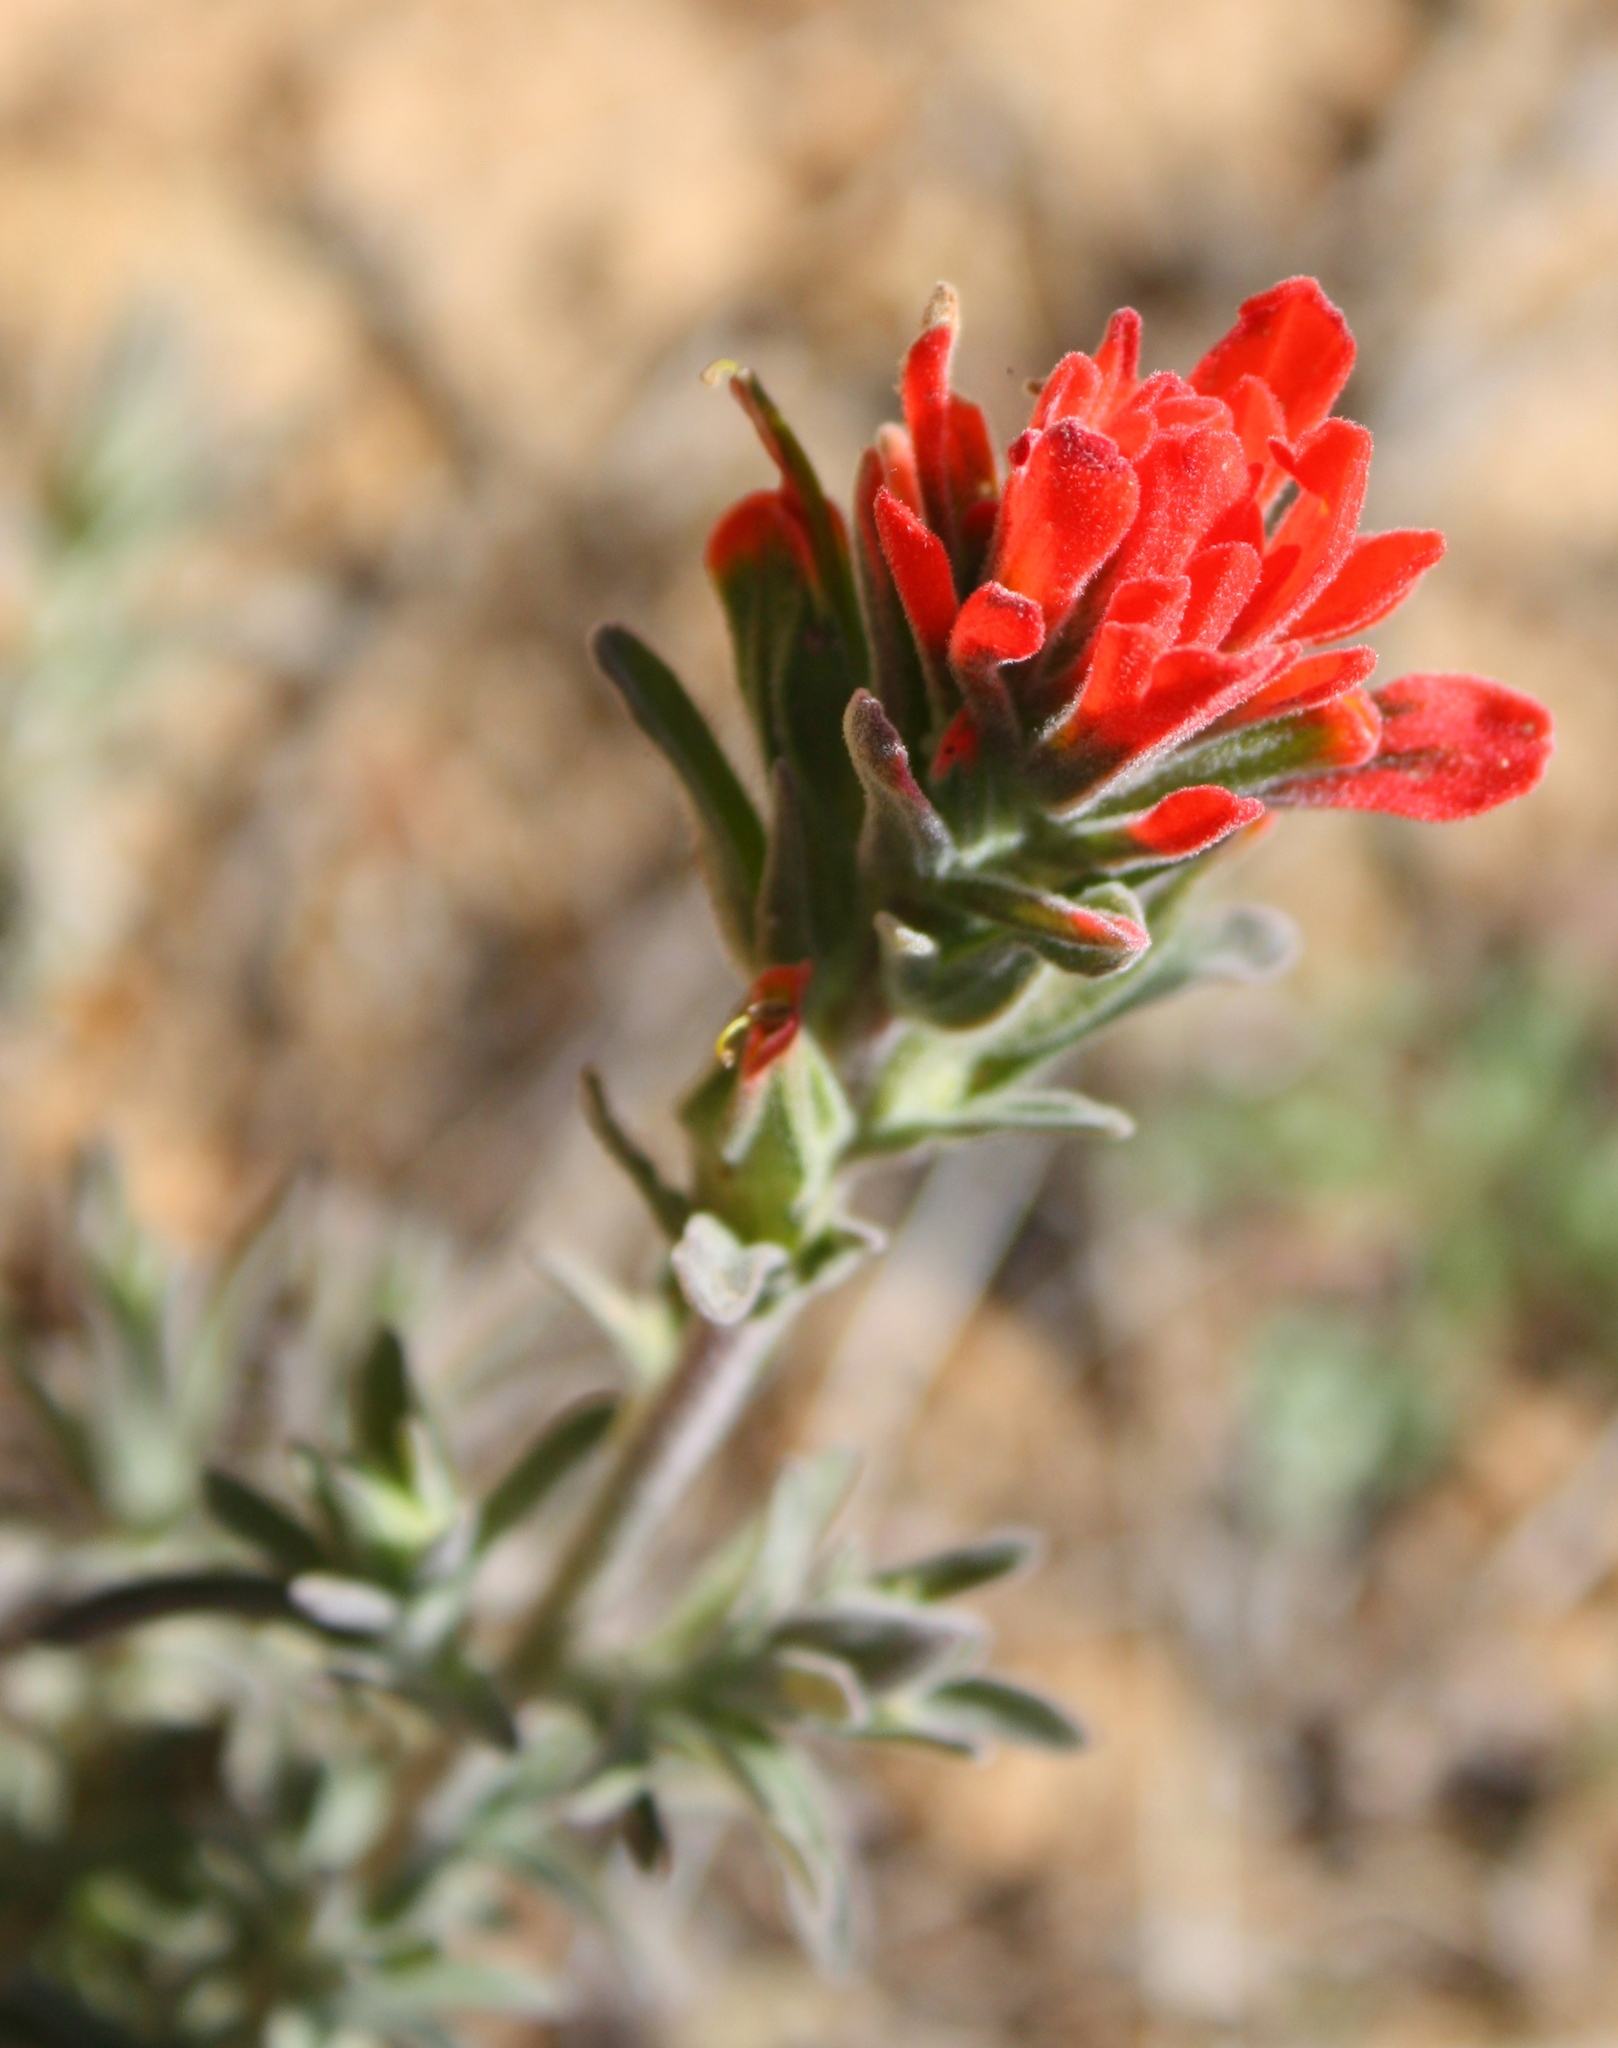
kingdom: Plantae
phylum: Tracheophyta
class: Magnoliopsida
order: Lamiales
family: Orobanchaceae
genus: Castilleja
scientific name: Castilleja foliolosa
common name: Woolly indian paintbrush
